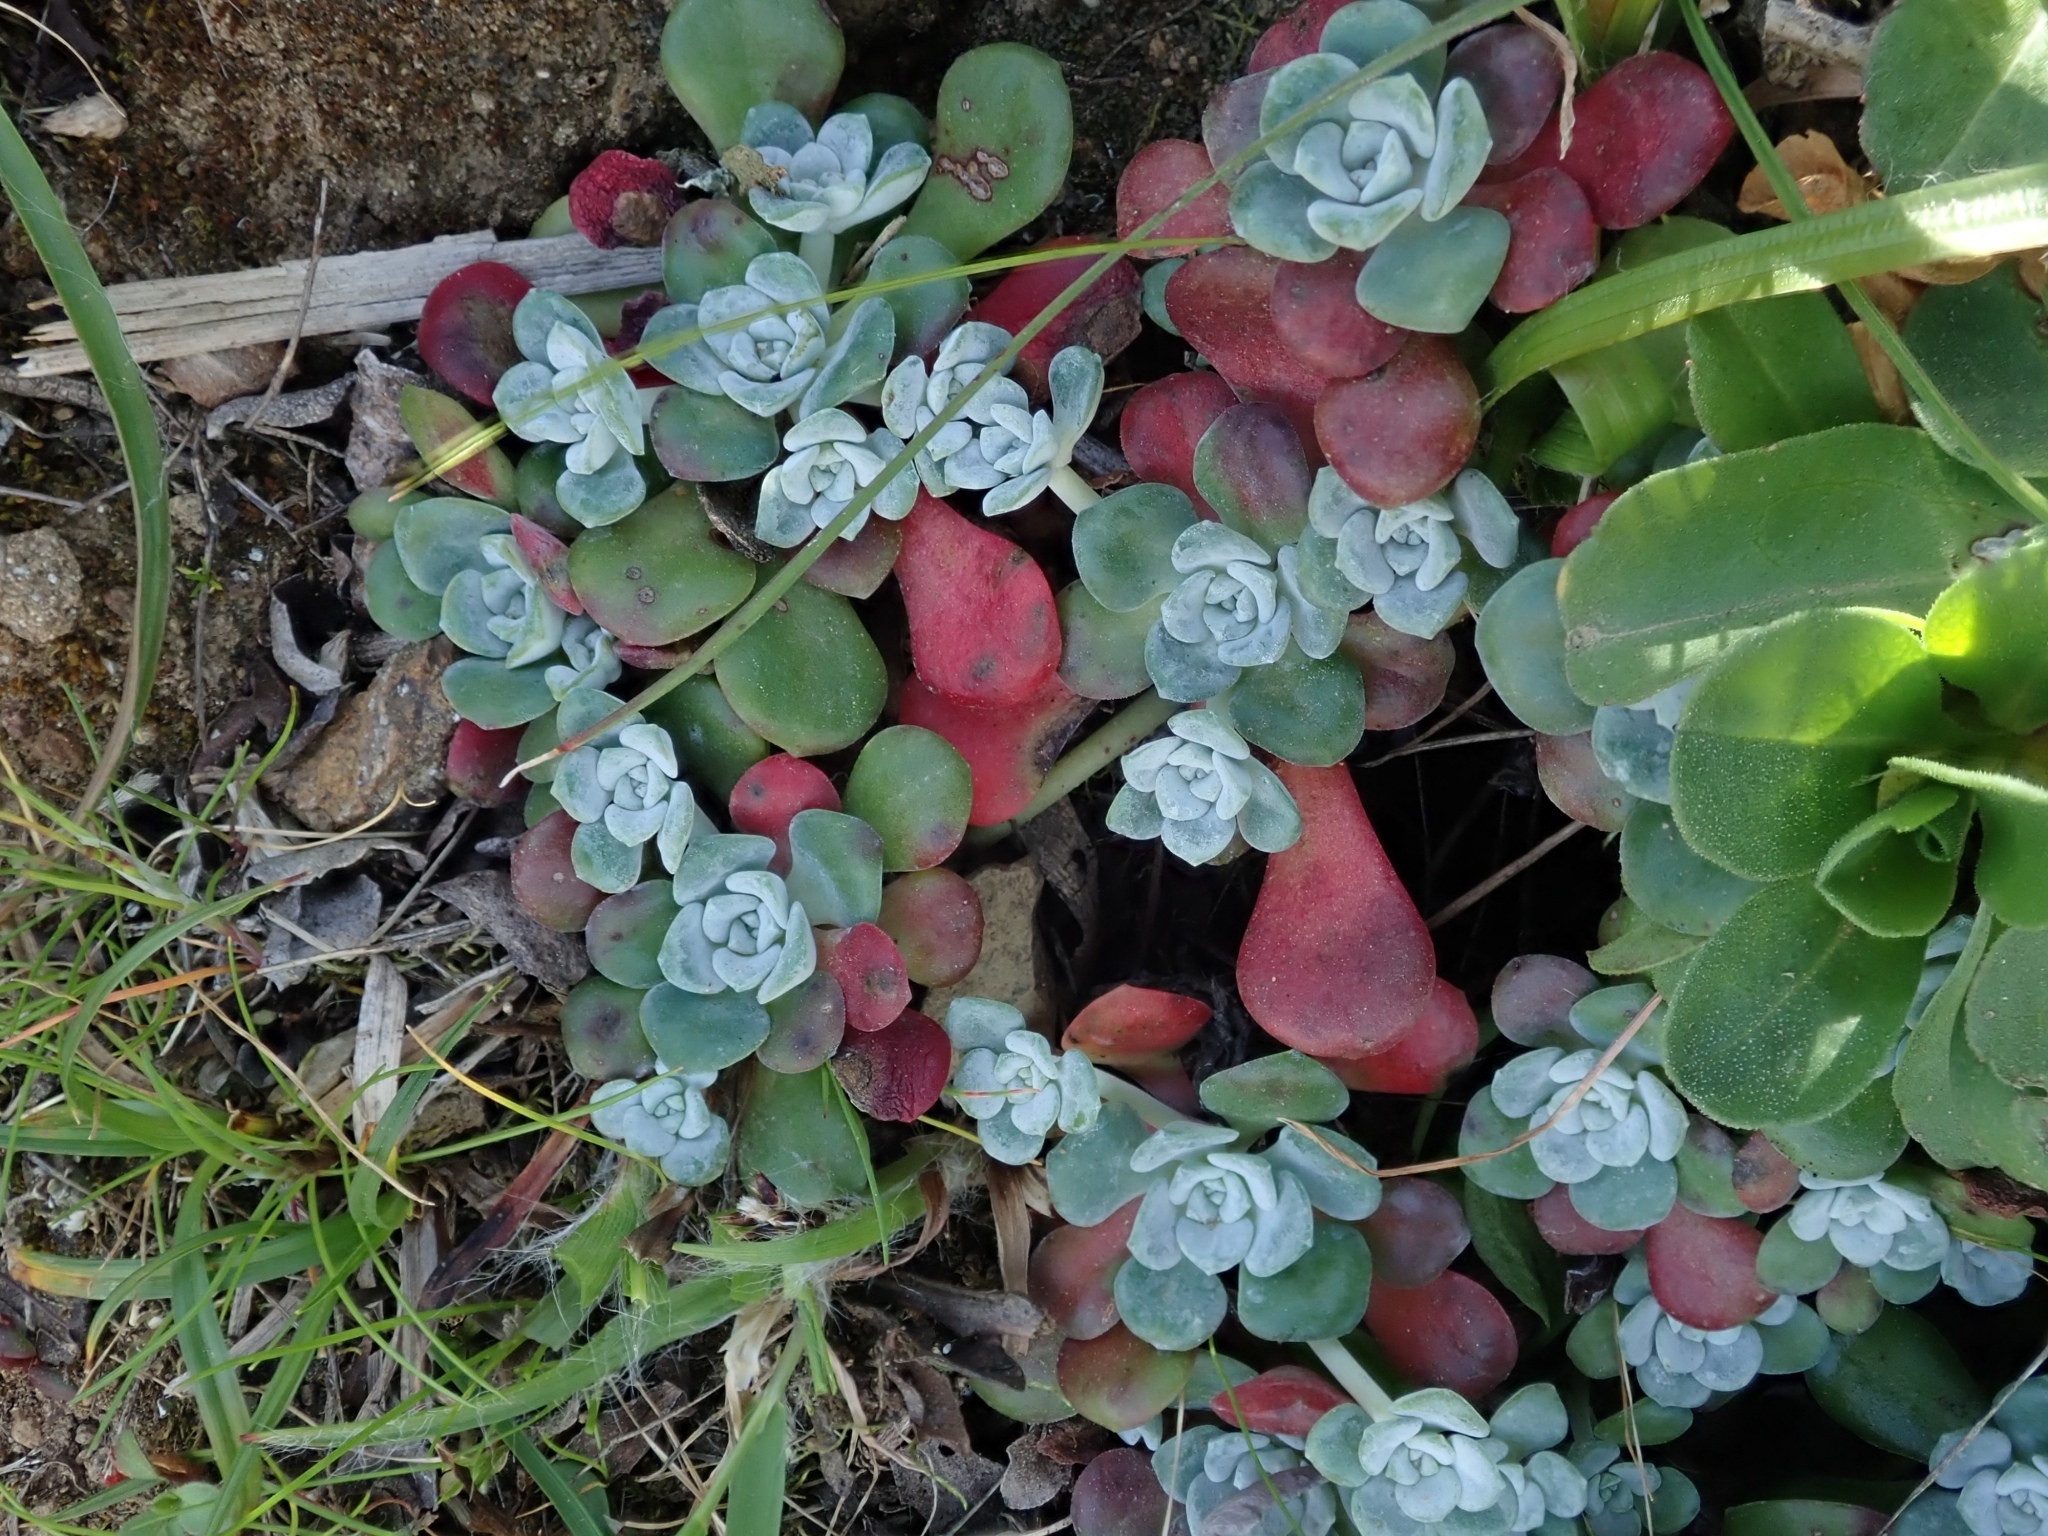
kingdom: Plantae
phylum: Tracheophyta
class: Magnoliopsida
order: Saxifragales
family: Crassulaceae
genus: Sedum
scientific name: Sedum spathulifolium
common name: Colorado stonecrop
